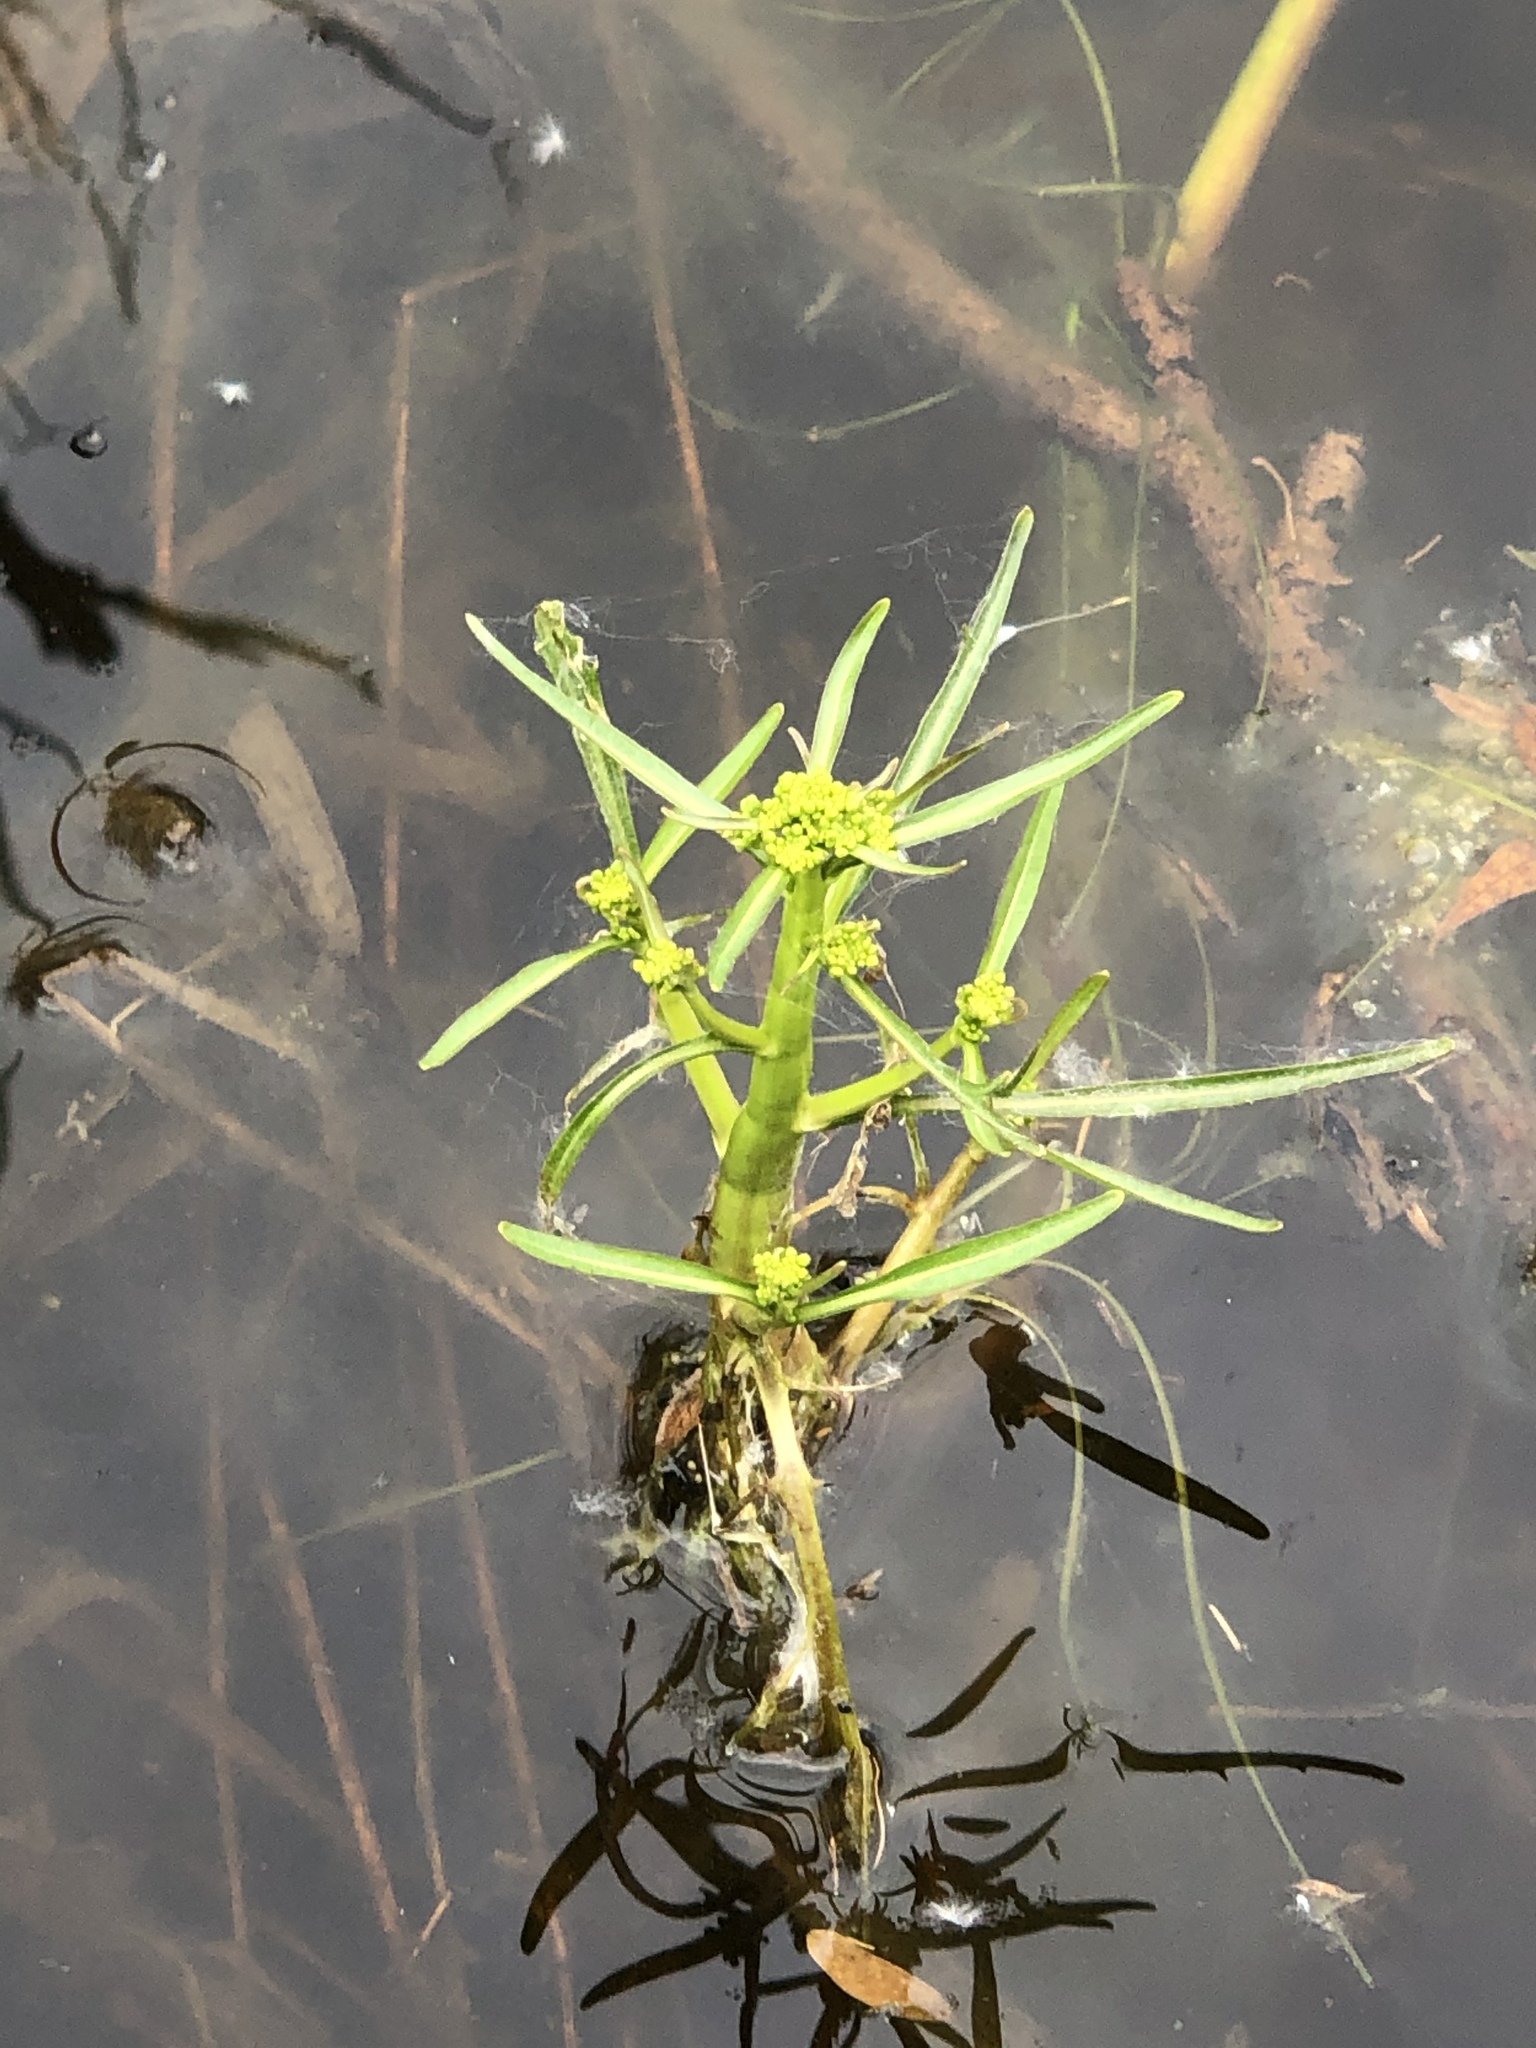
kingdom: Plantae
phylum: Tracheophyta
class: Magnoliopsida
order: Brassicales
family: Brassicaceae
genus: Rorippa
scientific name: Rorippa amphibia
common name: Great yellow-cress
